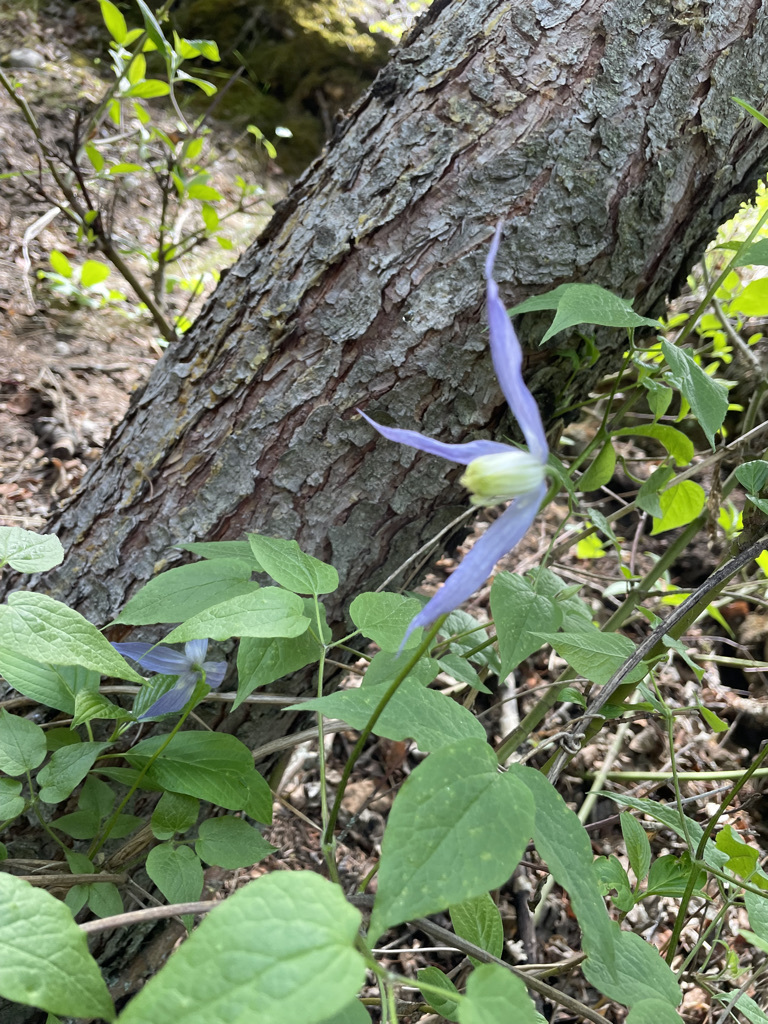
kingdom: Plantae
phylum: Tracheophyta
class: Magnoliopsida
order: Ranunculales
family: Ranunculaceae
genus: Clematis
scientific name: Clematis occidentalis
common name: Purple clematis
